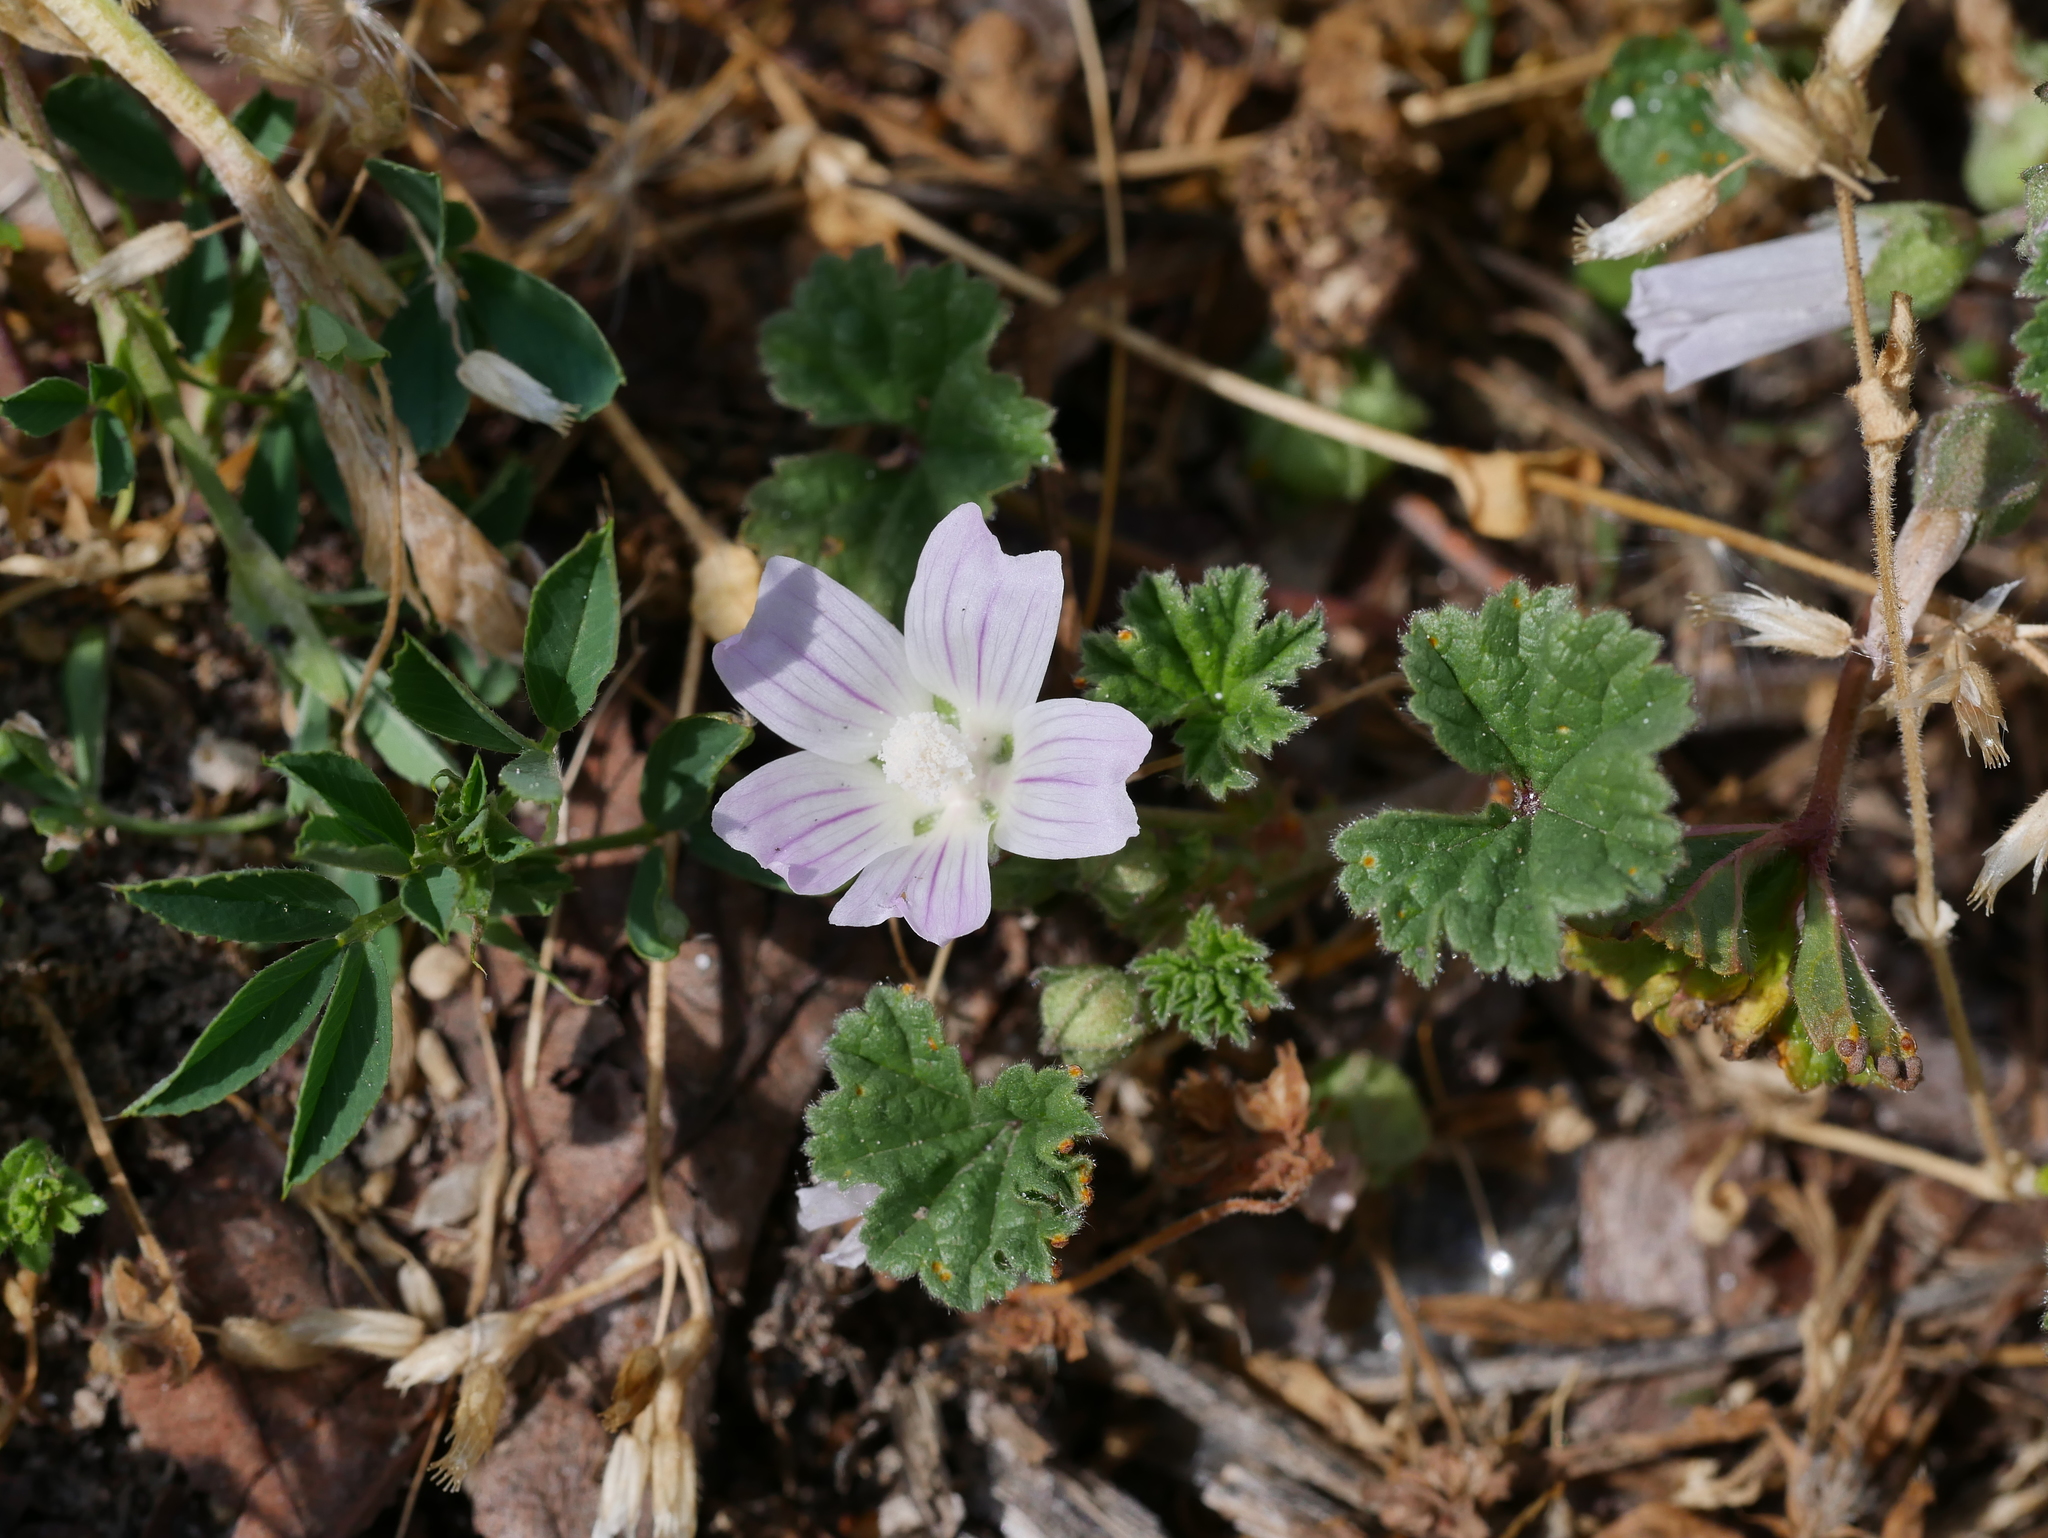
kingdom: Plantae
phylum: Tracheophyta
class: Magnoliopsida
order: Malvales
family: Malvaceae
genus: Malva
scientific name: Malva neglecta
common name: Common mallow
